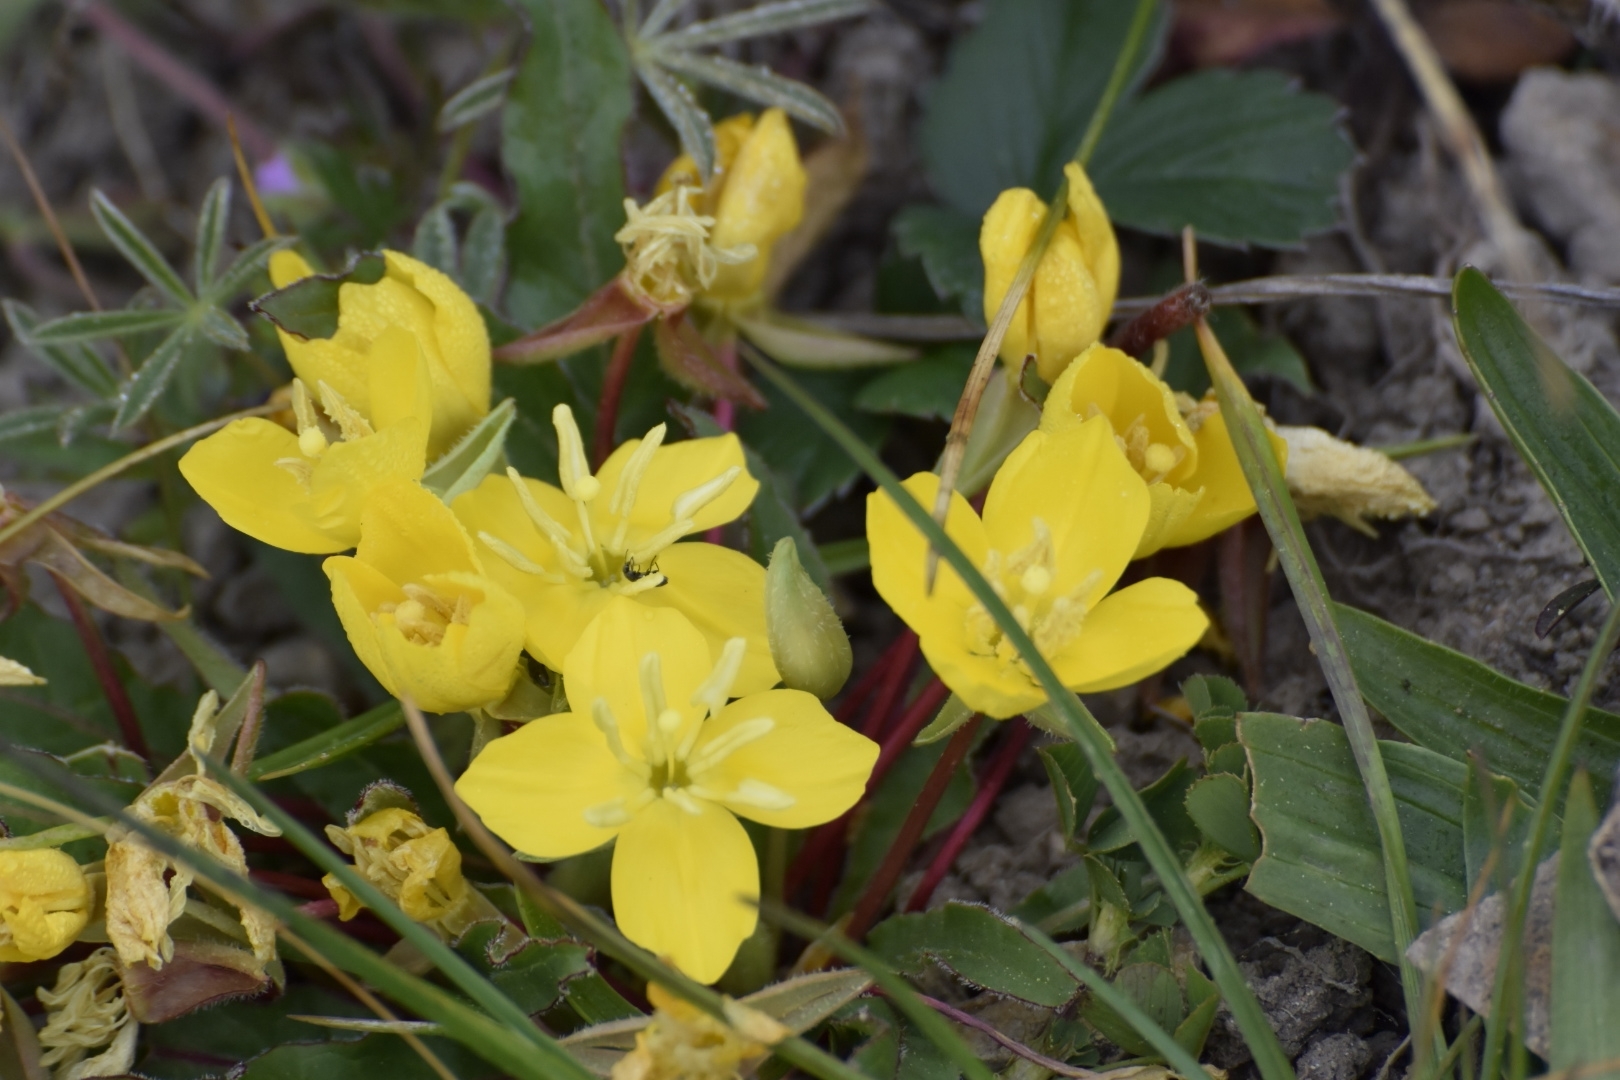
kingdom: Plantae
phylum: Tracheophyta
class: Magnoliopsida
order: Myrtales
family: Onagraceae
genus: Taraxia
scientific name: Taraxia ovata
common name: Goldeneggs
